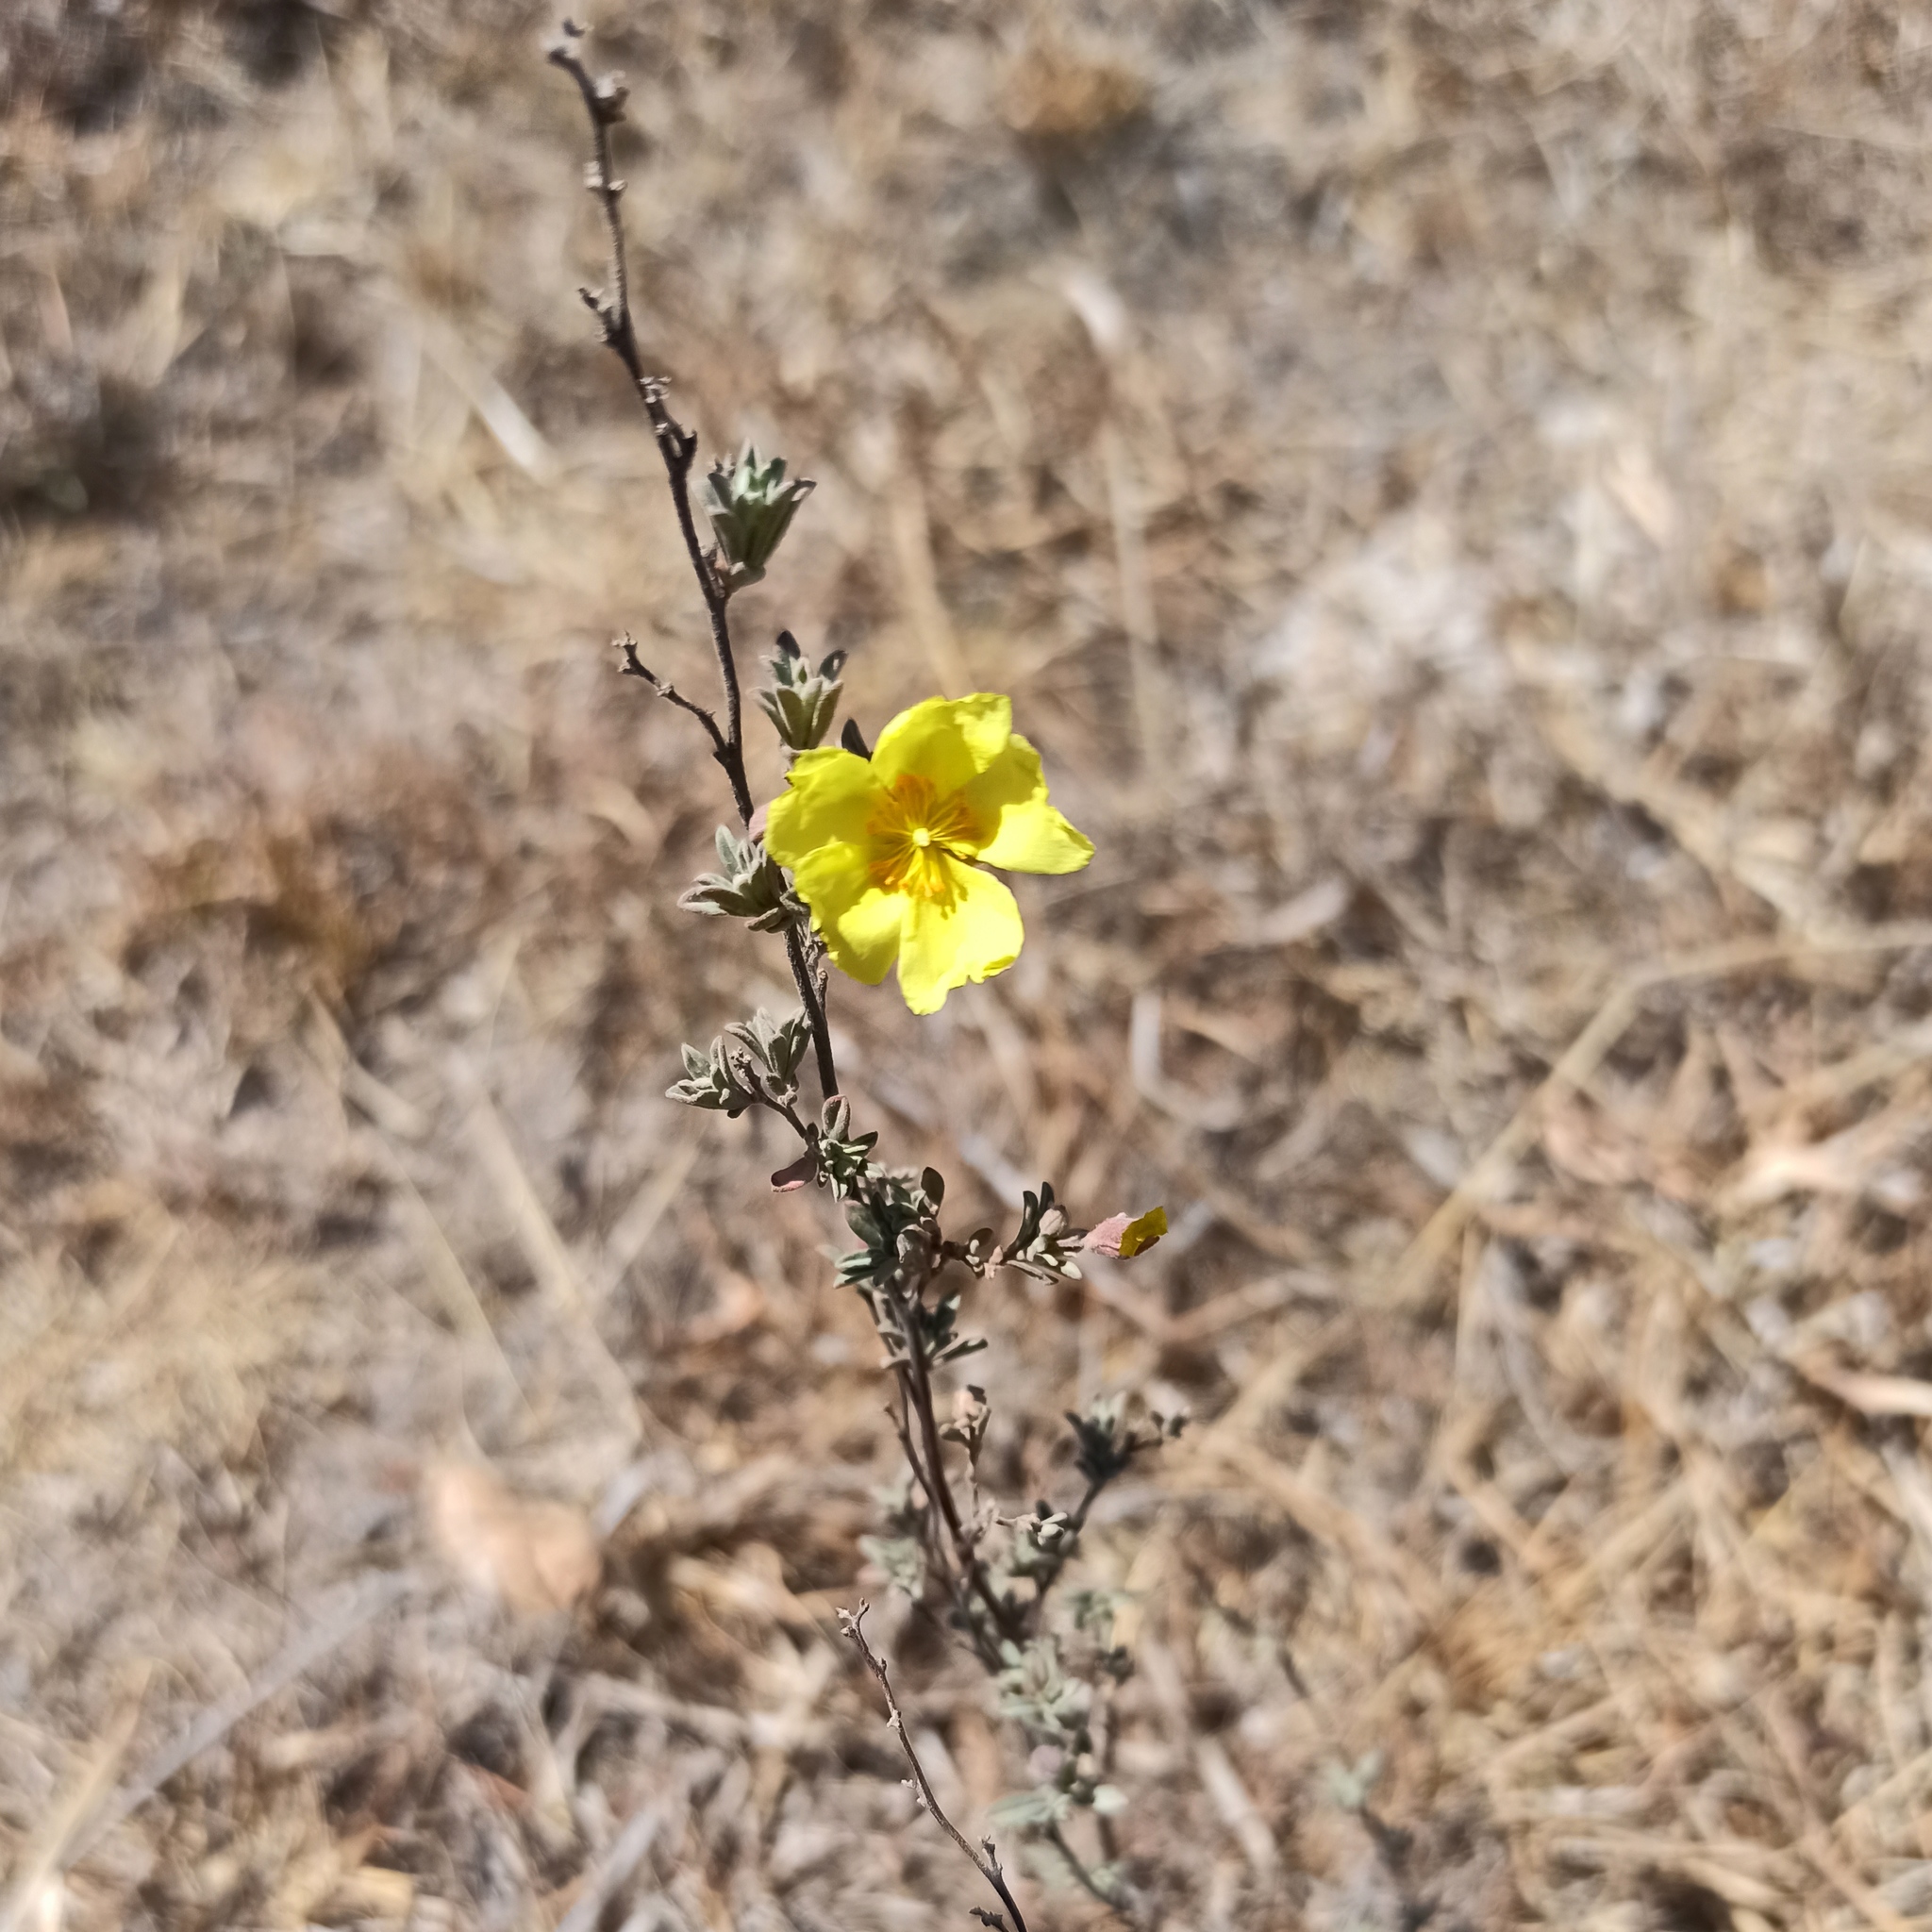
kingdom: Plantae
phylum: Tracheophyta
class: Magnoliopsida
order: Malvales
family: Cistaceae
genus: Crocanthemum
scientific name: Crocanthemum glomeratum
